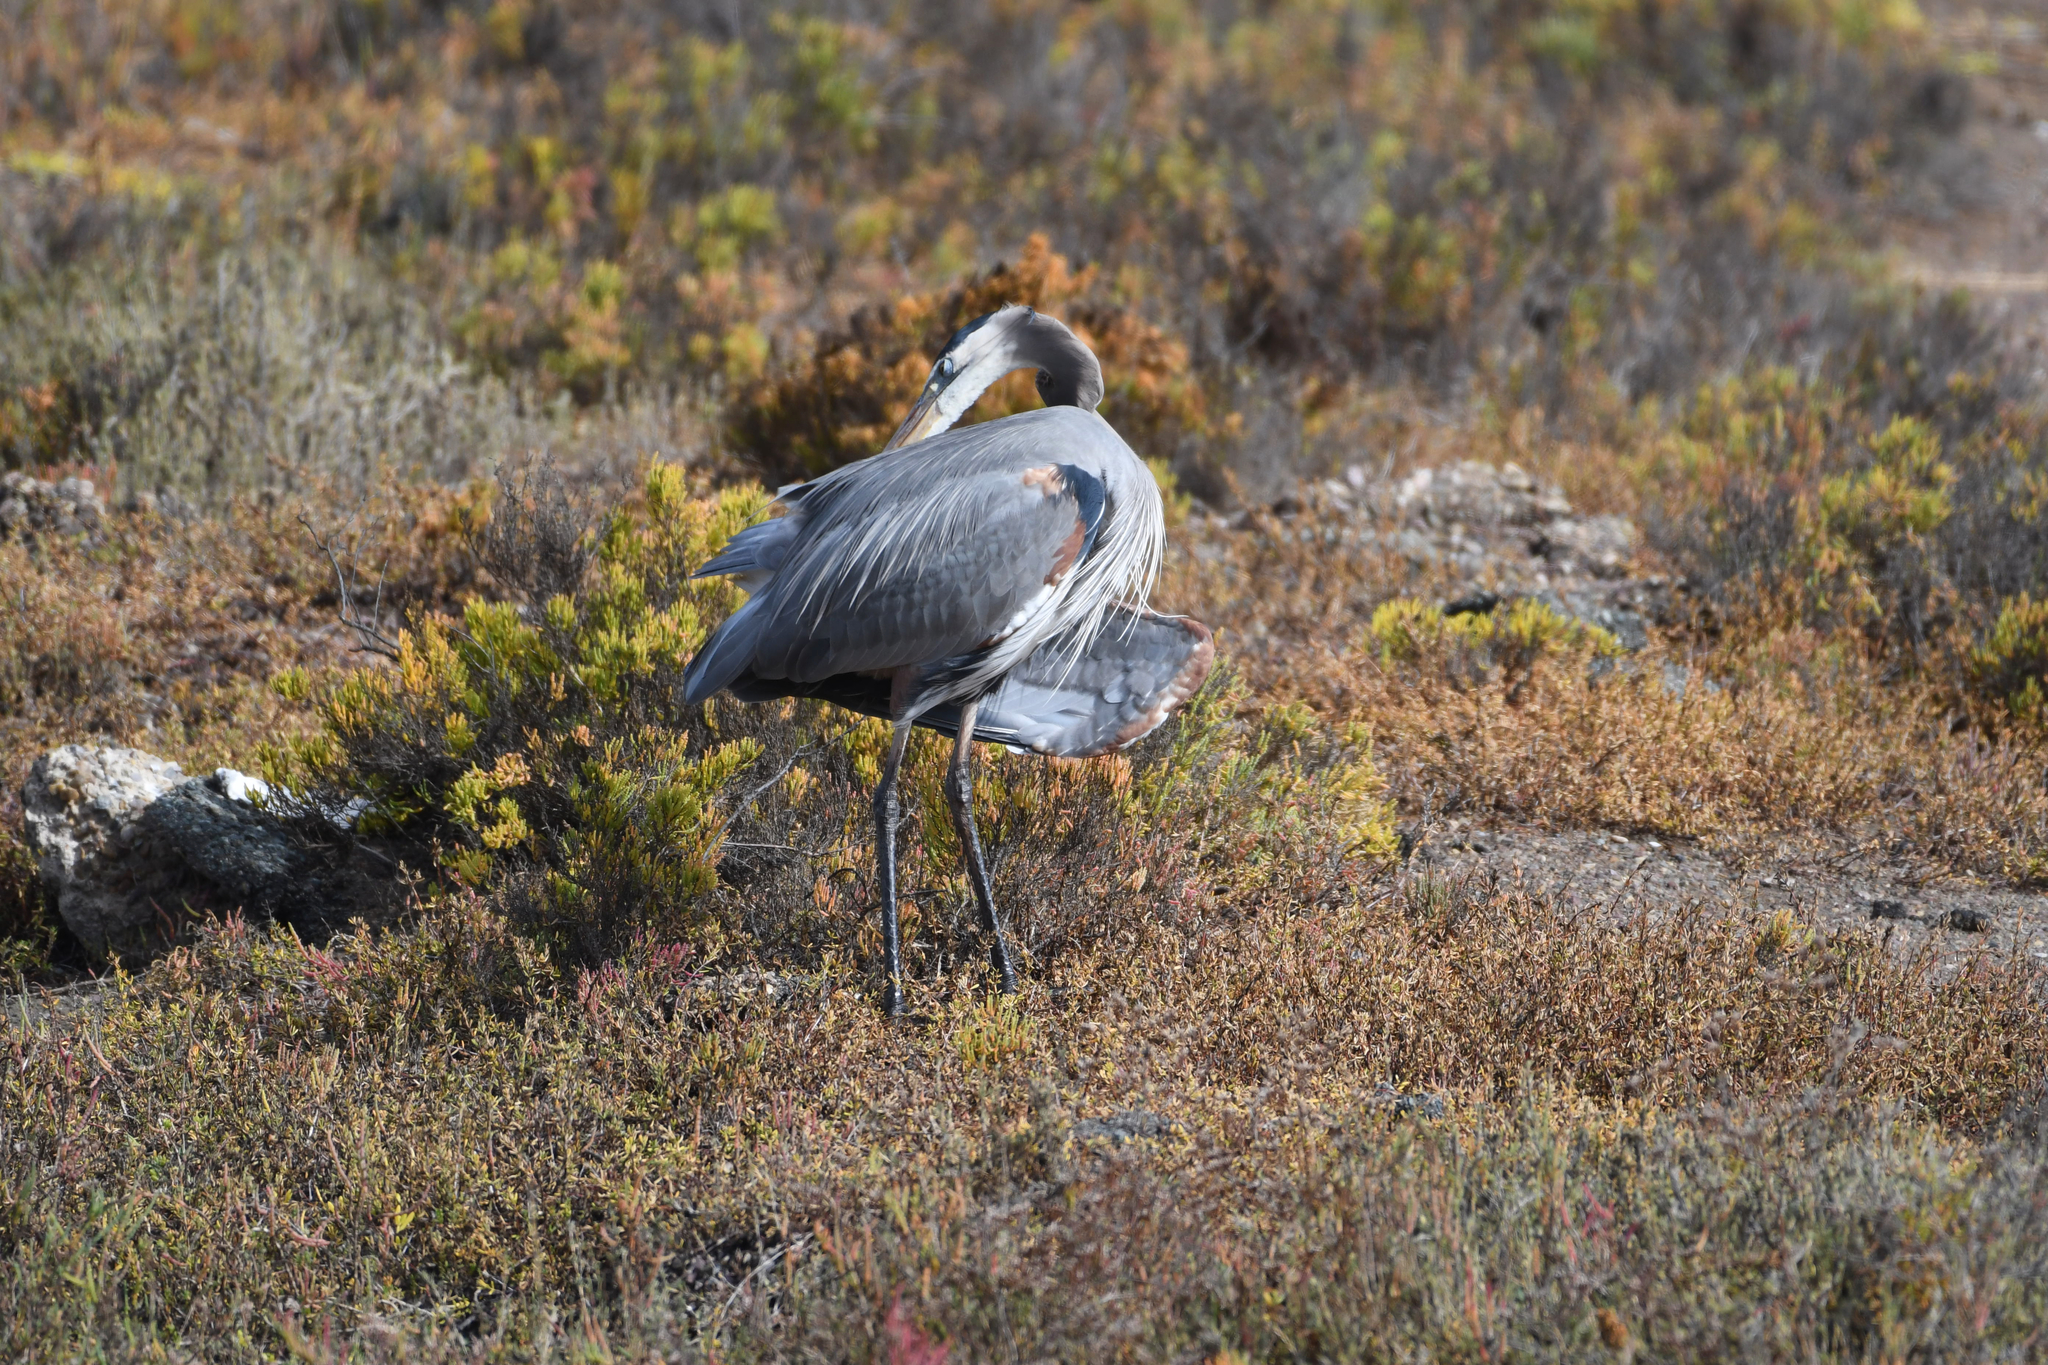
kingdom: Animalia
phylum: Chordata
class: Aves
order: Pelecaniformes
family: Ardeidae
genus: Ardea
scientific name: Ardea herodias
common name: Great blue heron
